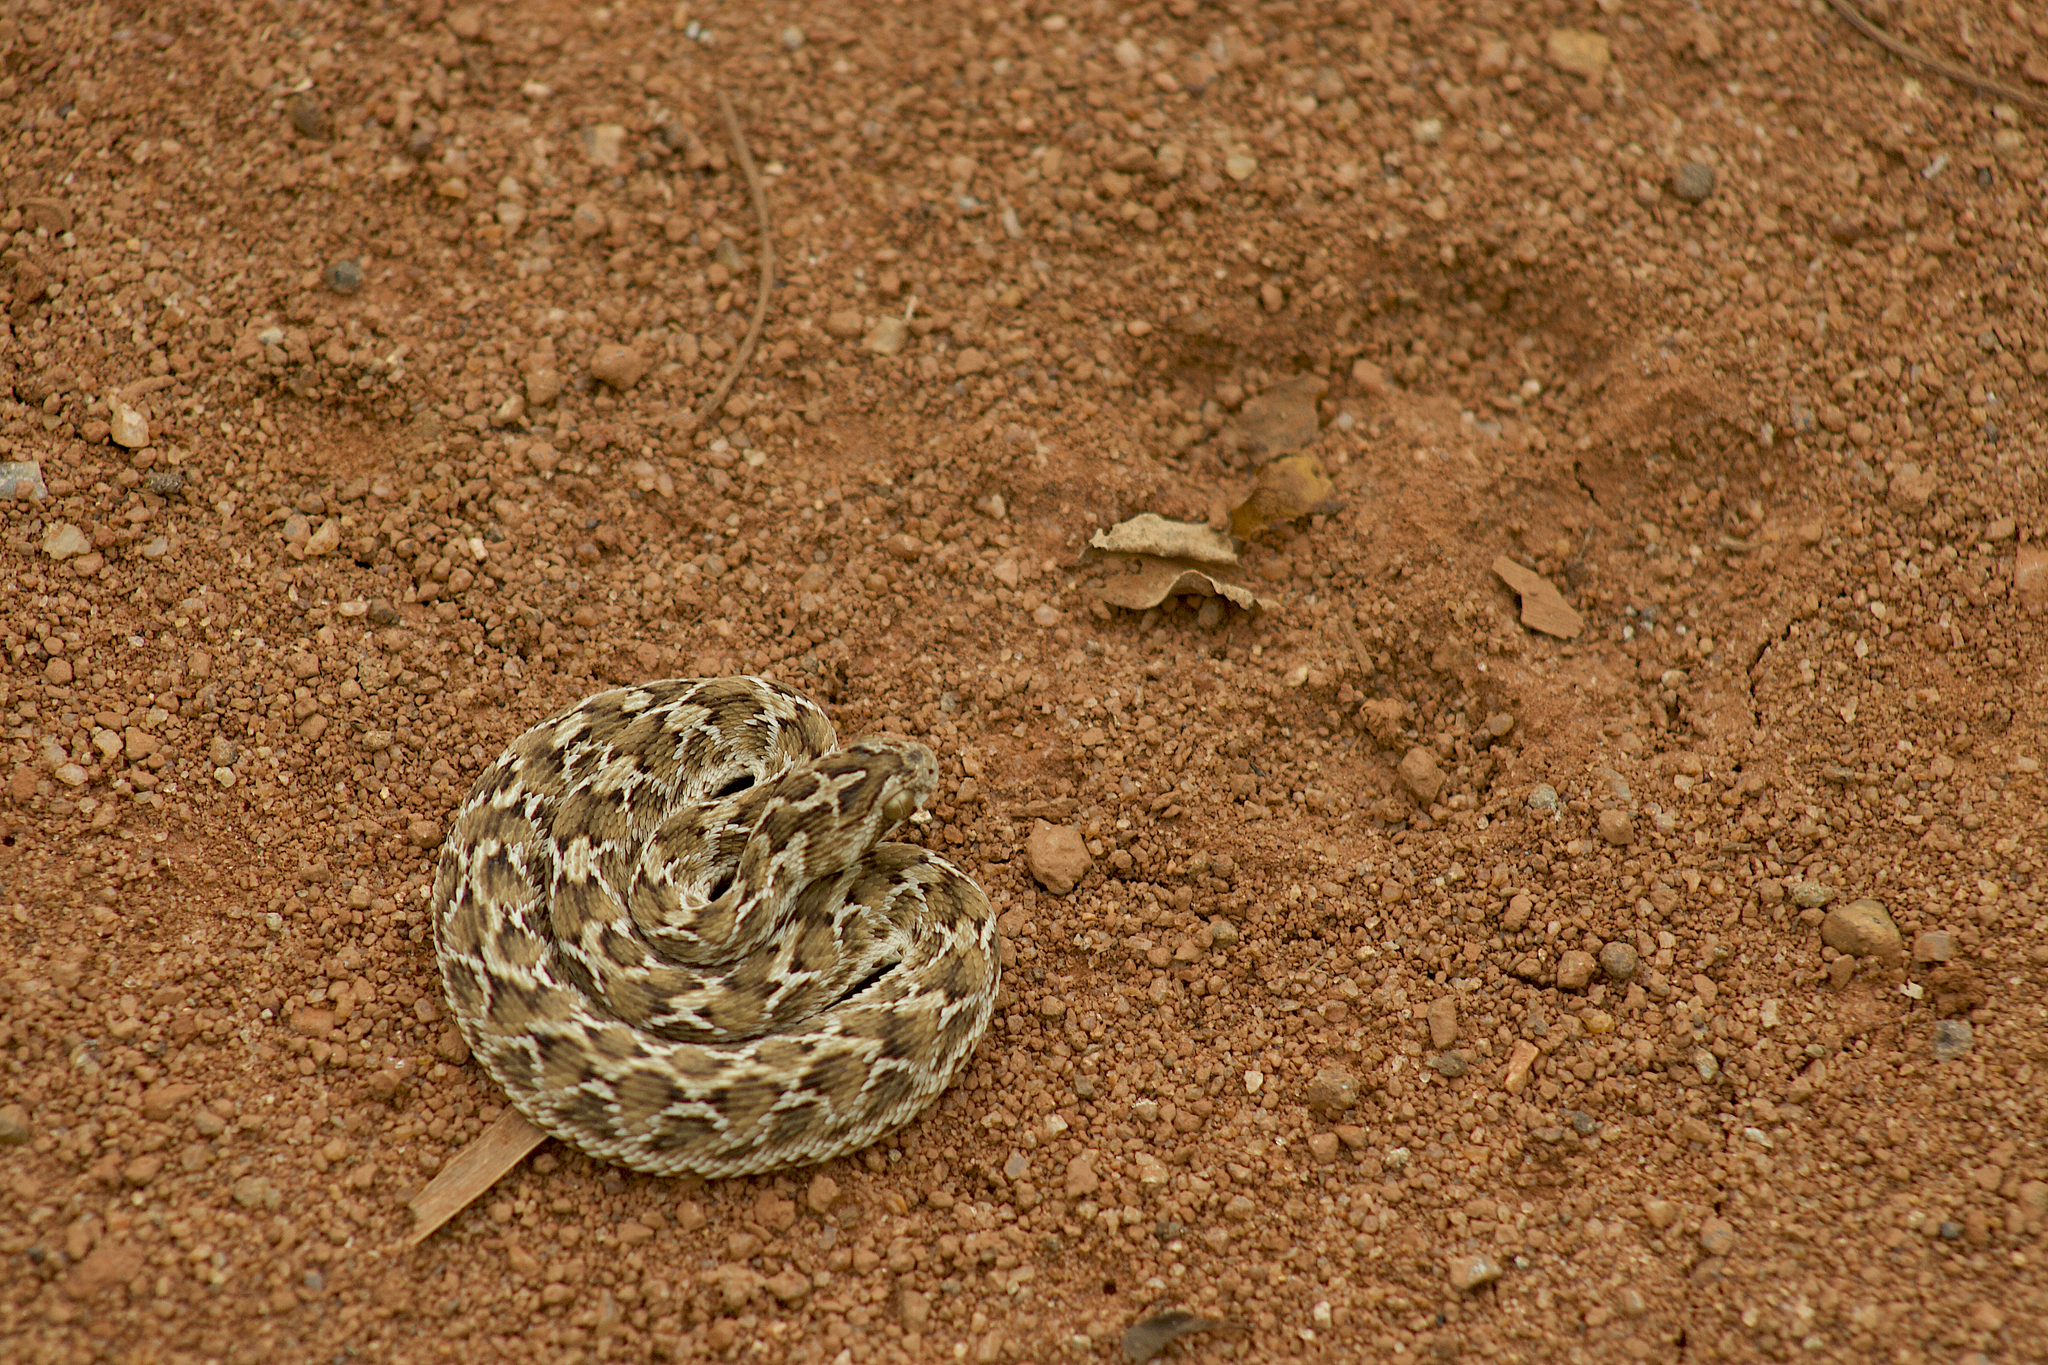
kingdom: Animalia
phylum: Chordata
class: Squamata
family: Viperidae
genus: Echis
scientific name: Echis carinatus
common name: Saw-scaled viper
